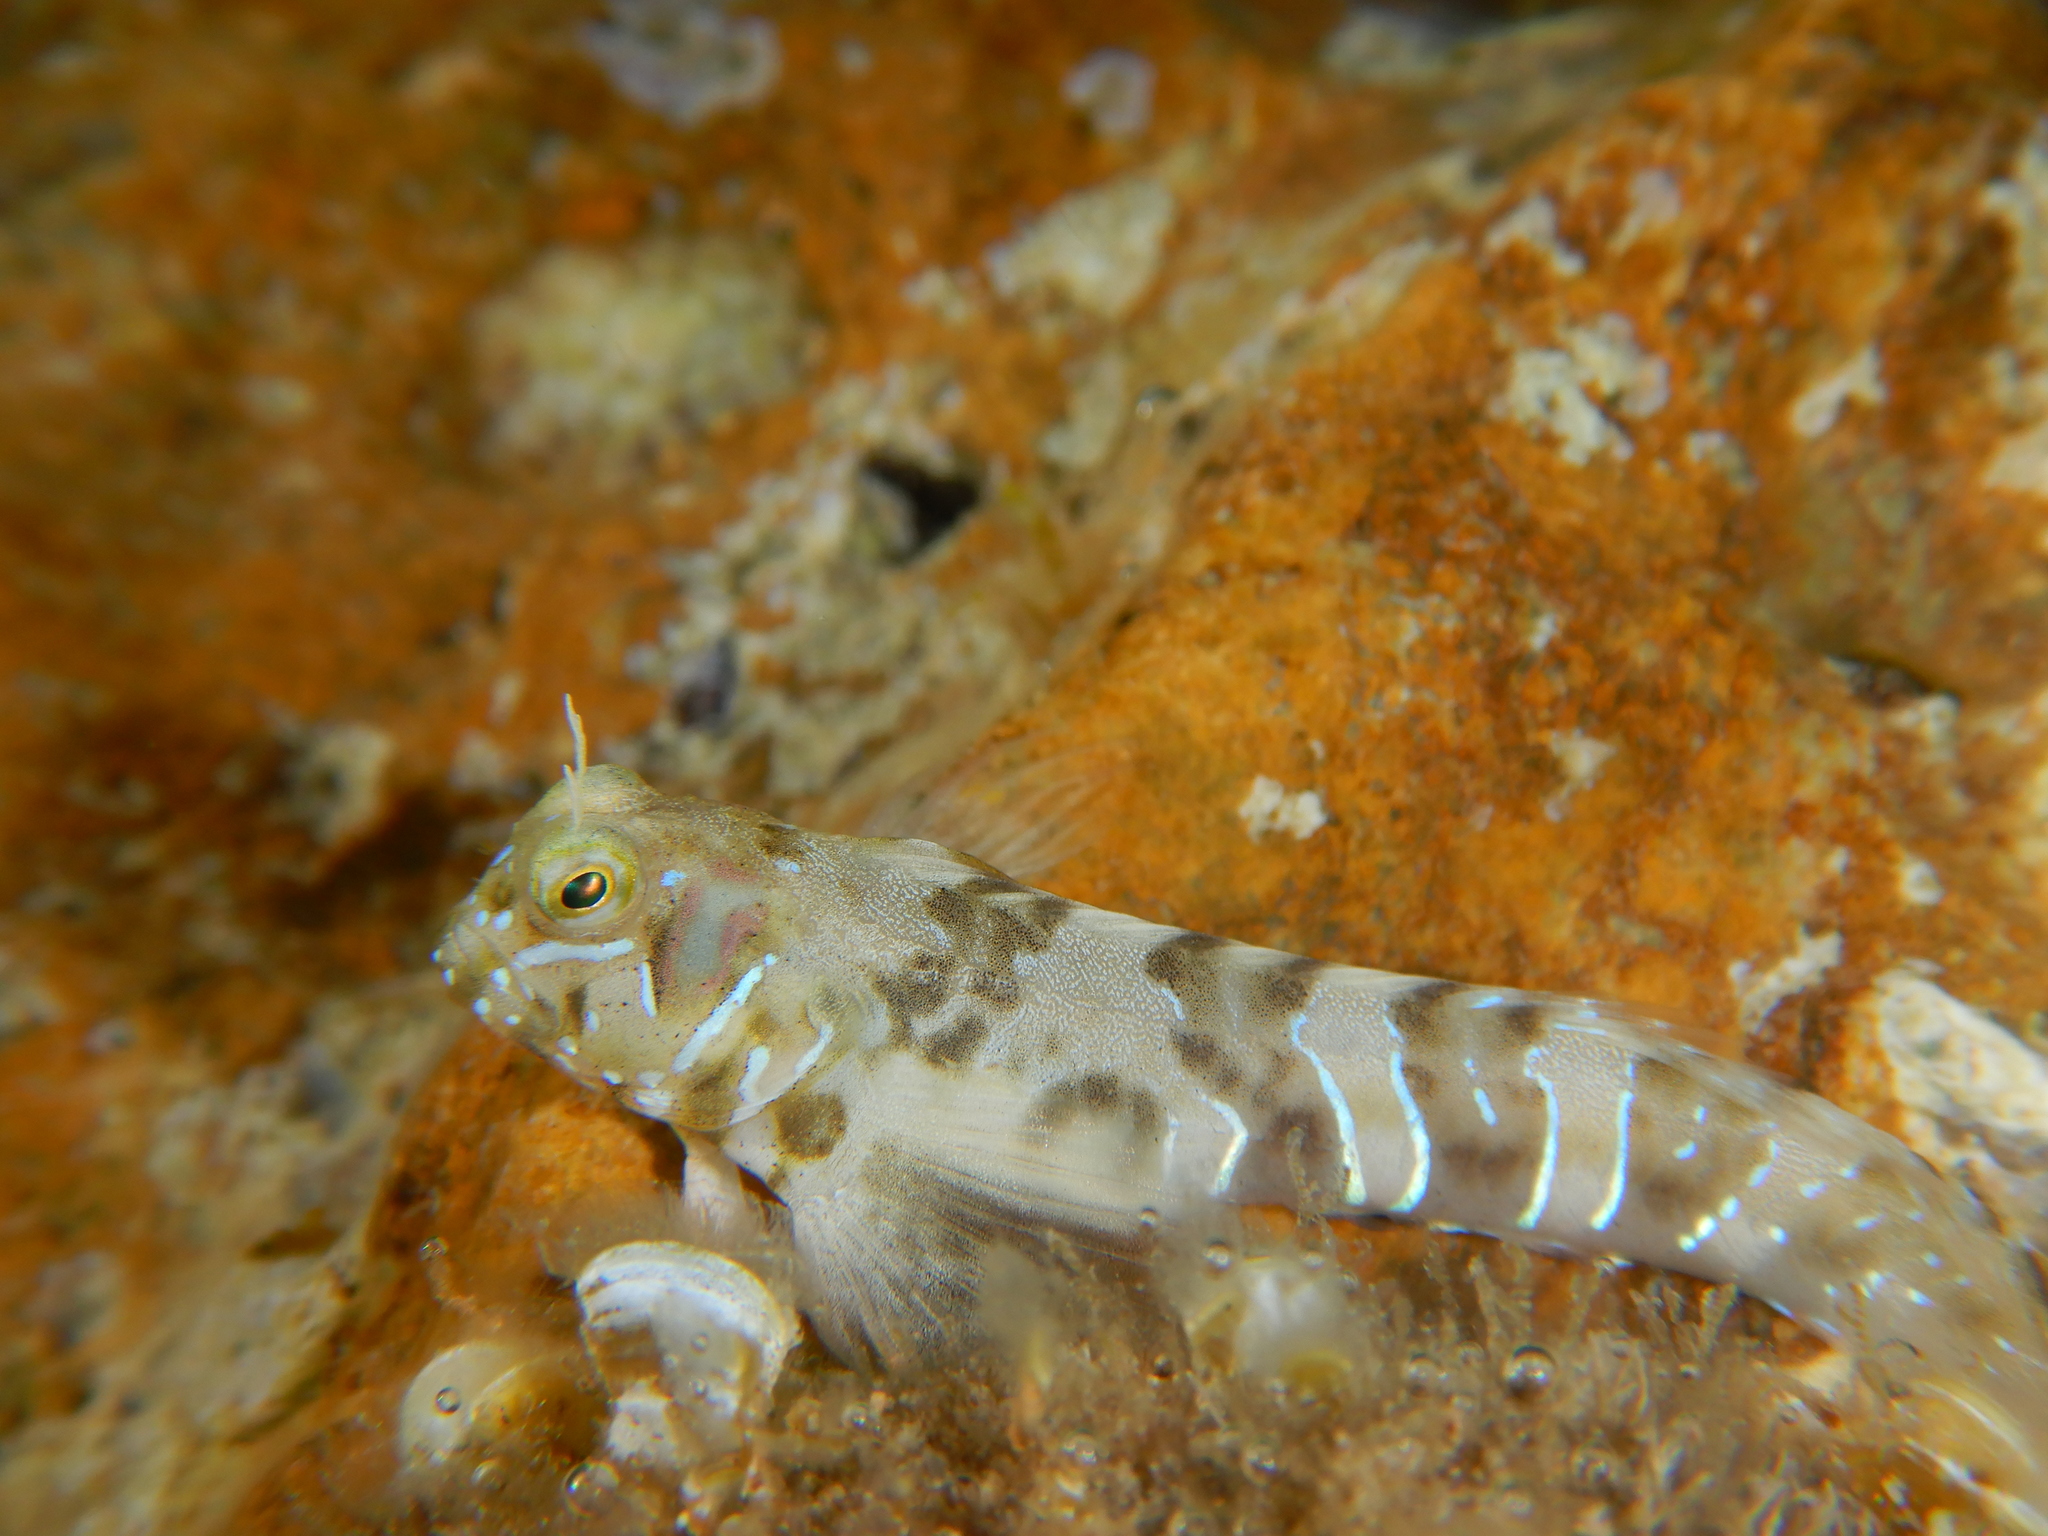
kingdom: Animalia
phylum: Chordata
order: Perciformes
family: Blenniidae
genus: Aidablennius
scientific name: Aidablennius sphynx
